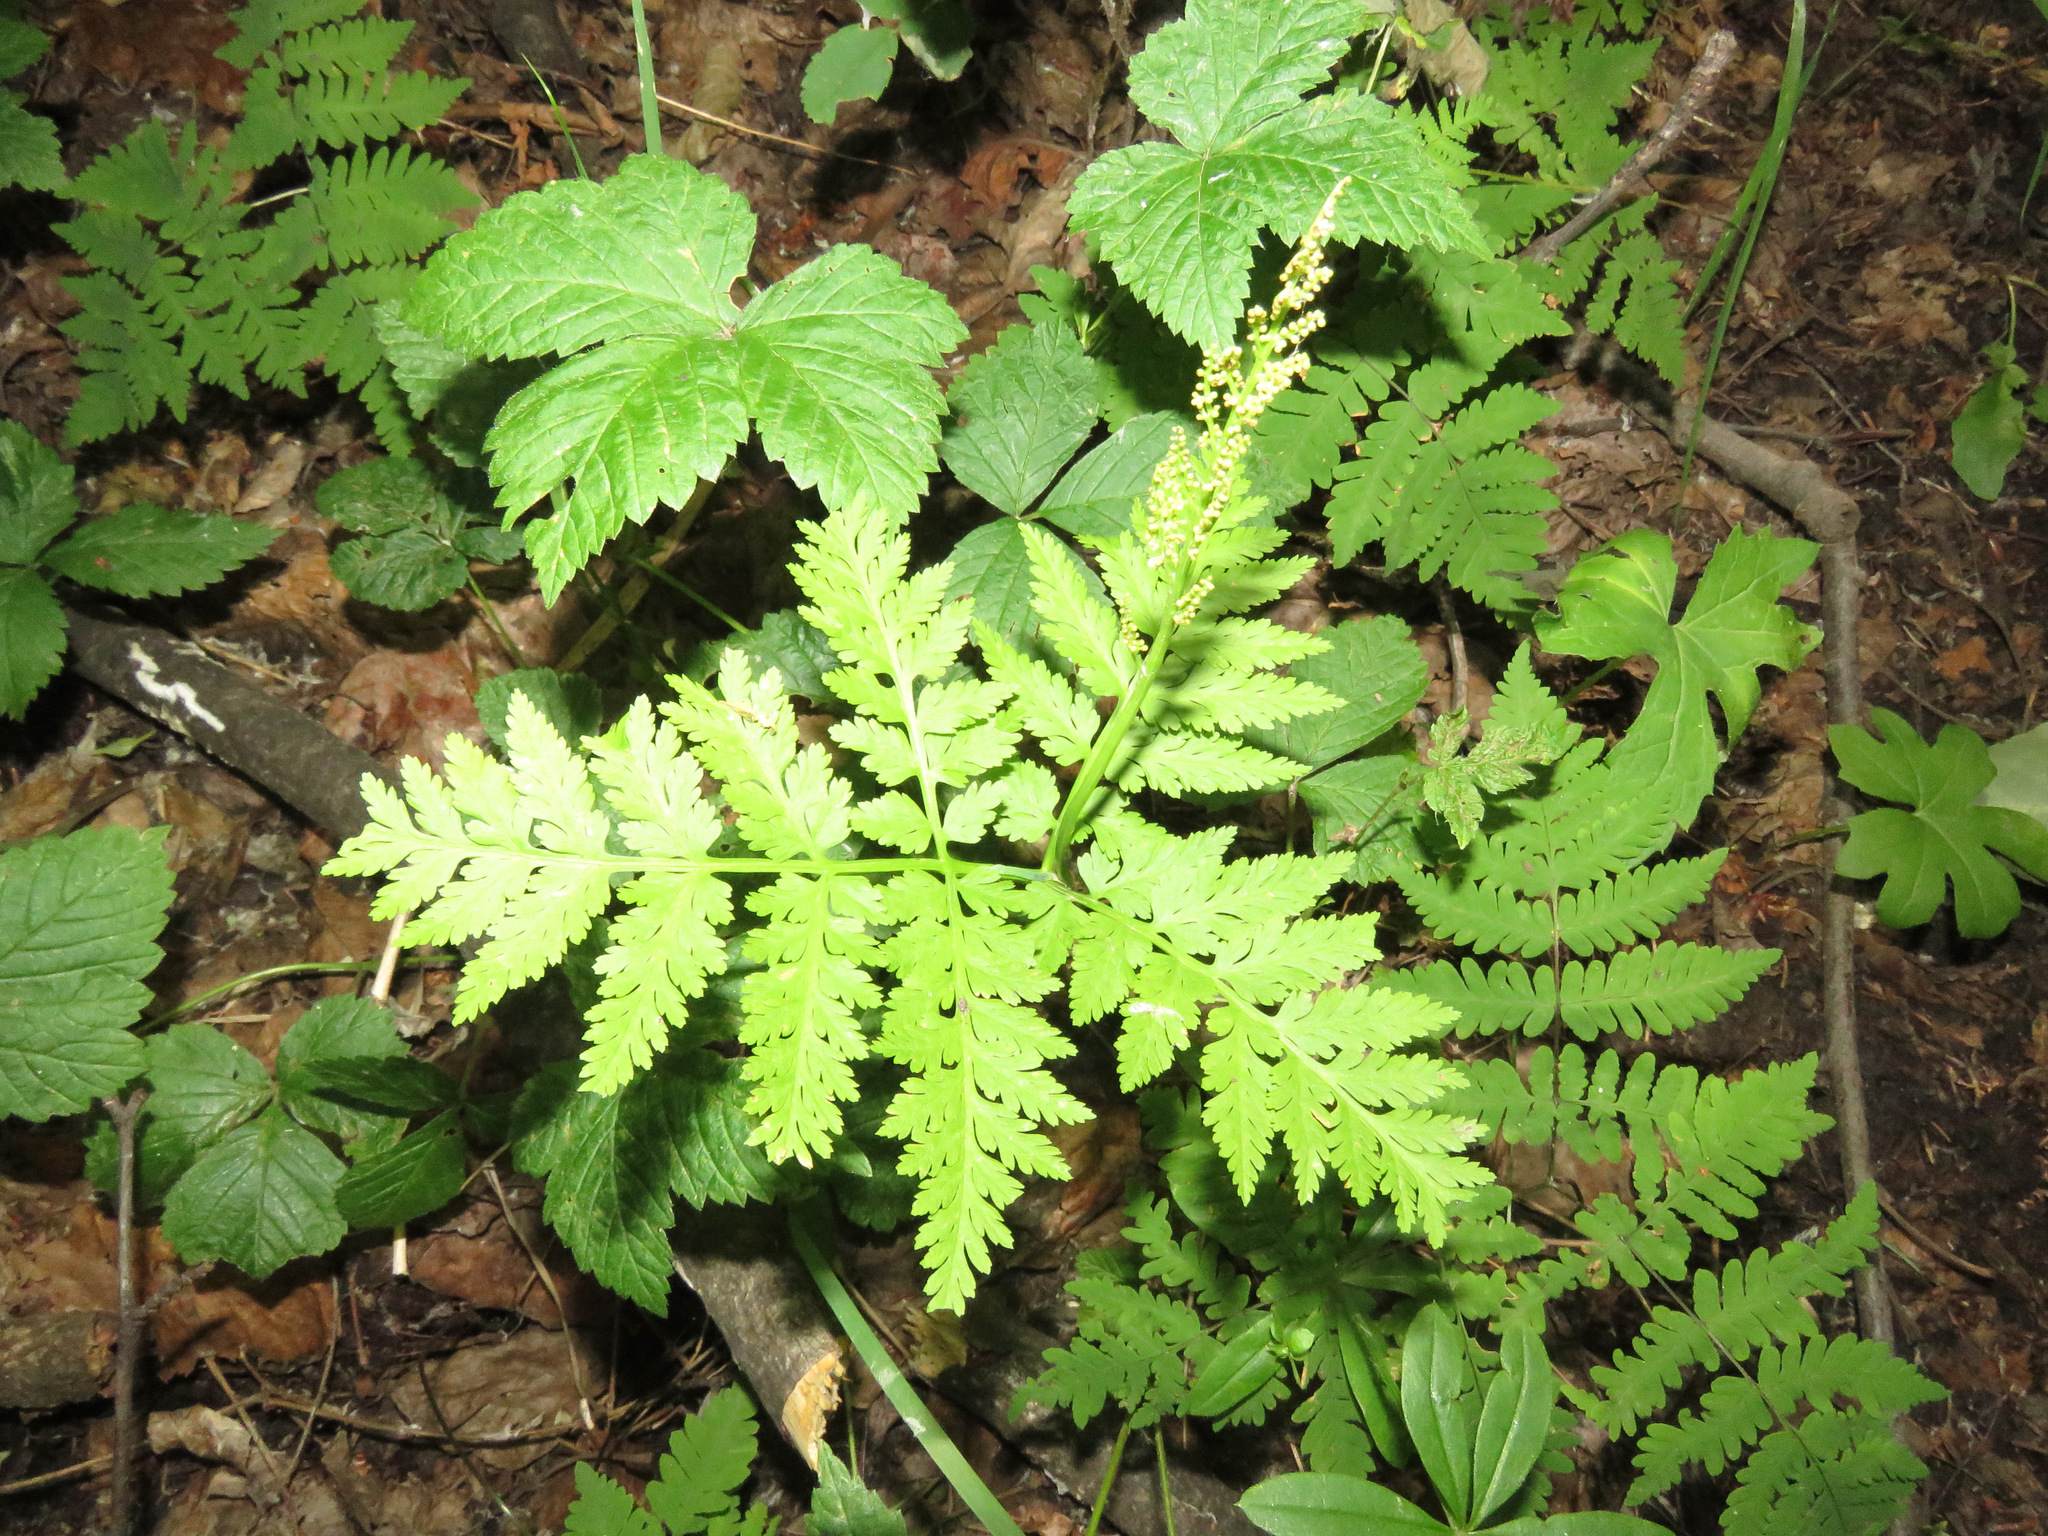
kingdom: Plantae
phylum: Tracheophyta
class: Polypodiopsida
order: Ophioglossales
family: Ophioglossaceae
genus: Botrypus
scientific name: Botrypus virginianus
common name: Common grapefern
